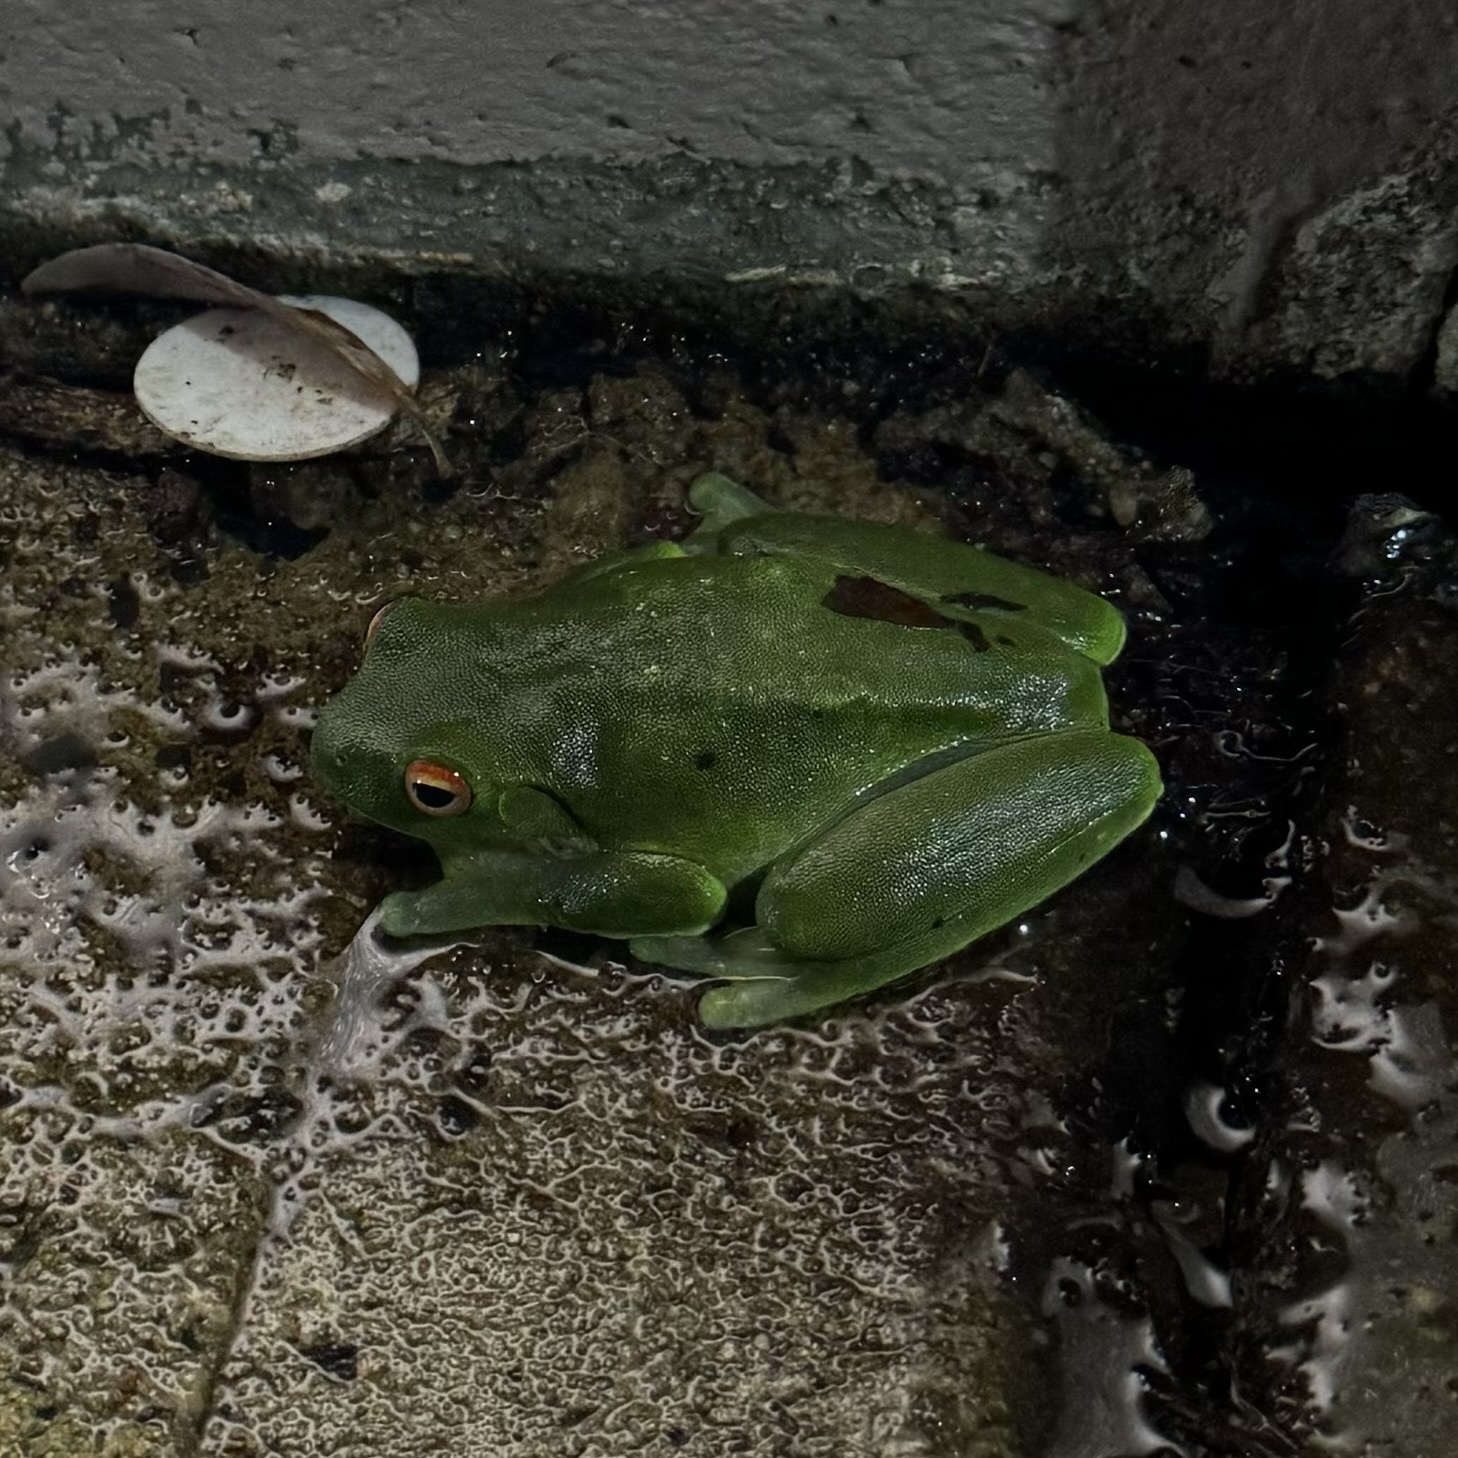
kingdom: Animalia
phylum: Chordata
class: Amphibia
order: Anura
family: Pelodryadidae
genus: Ranoidea
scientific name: Ranoidea chloris
